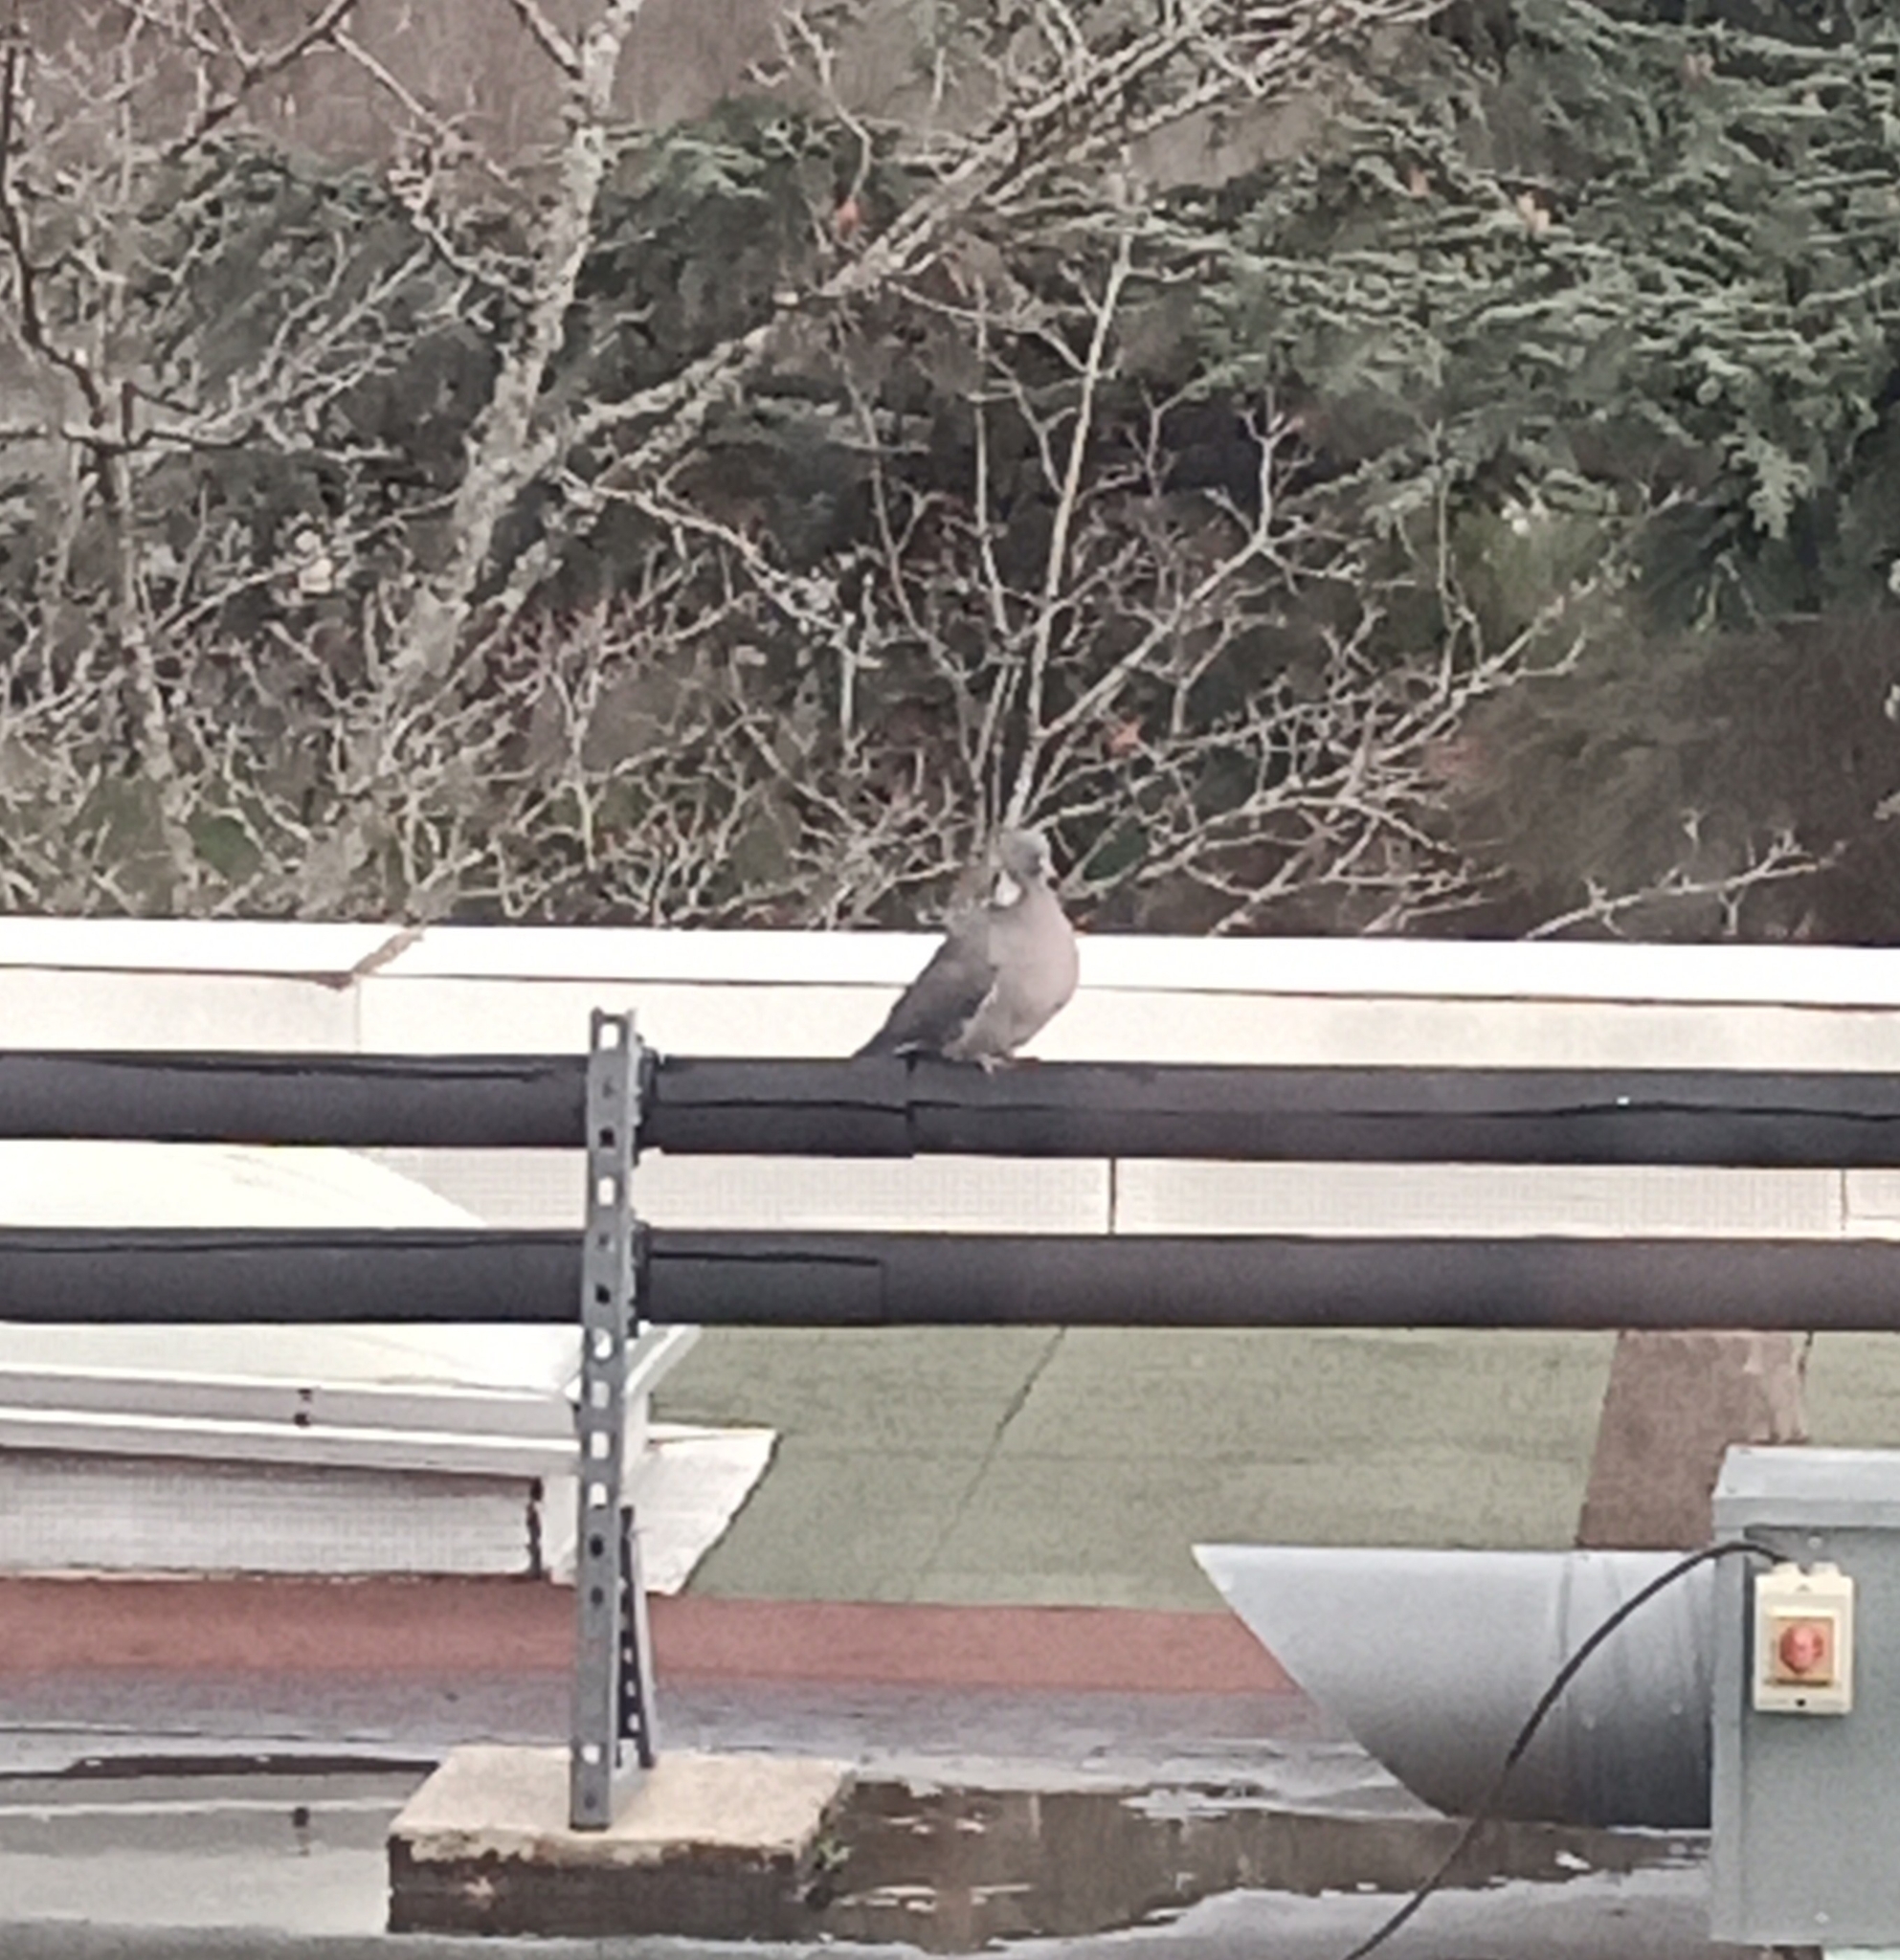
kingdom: Animalia
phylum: Chordata
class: Aves
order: Columbiformes
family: Columbidae
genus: Columba
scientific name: Columba palumbus
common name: Common wood pigeon
